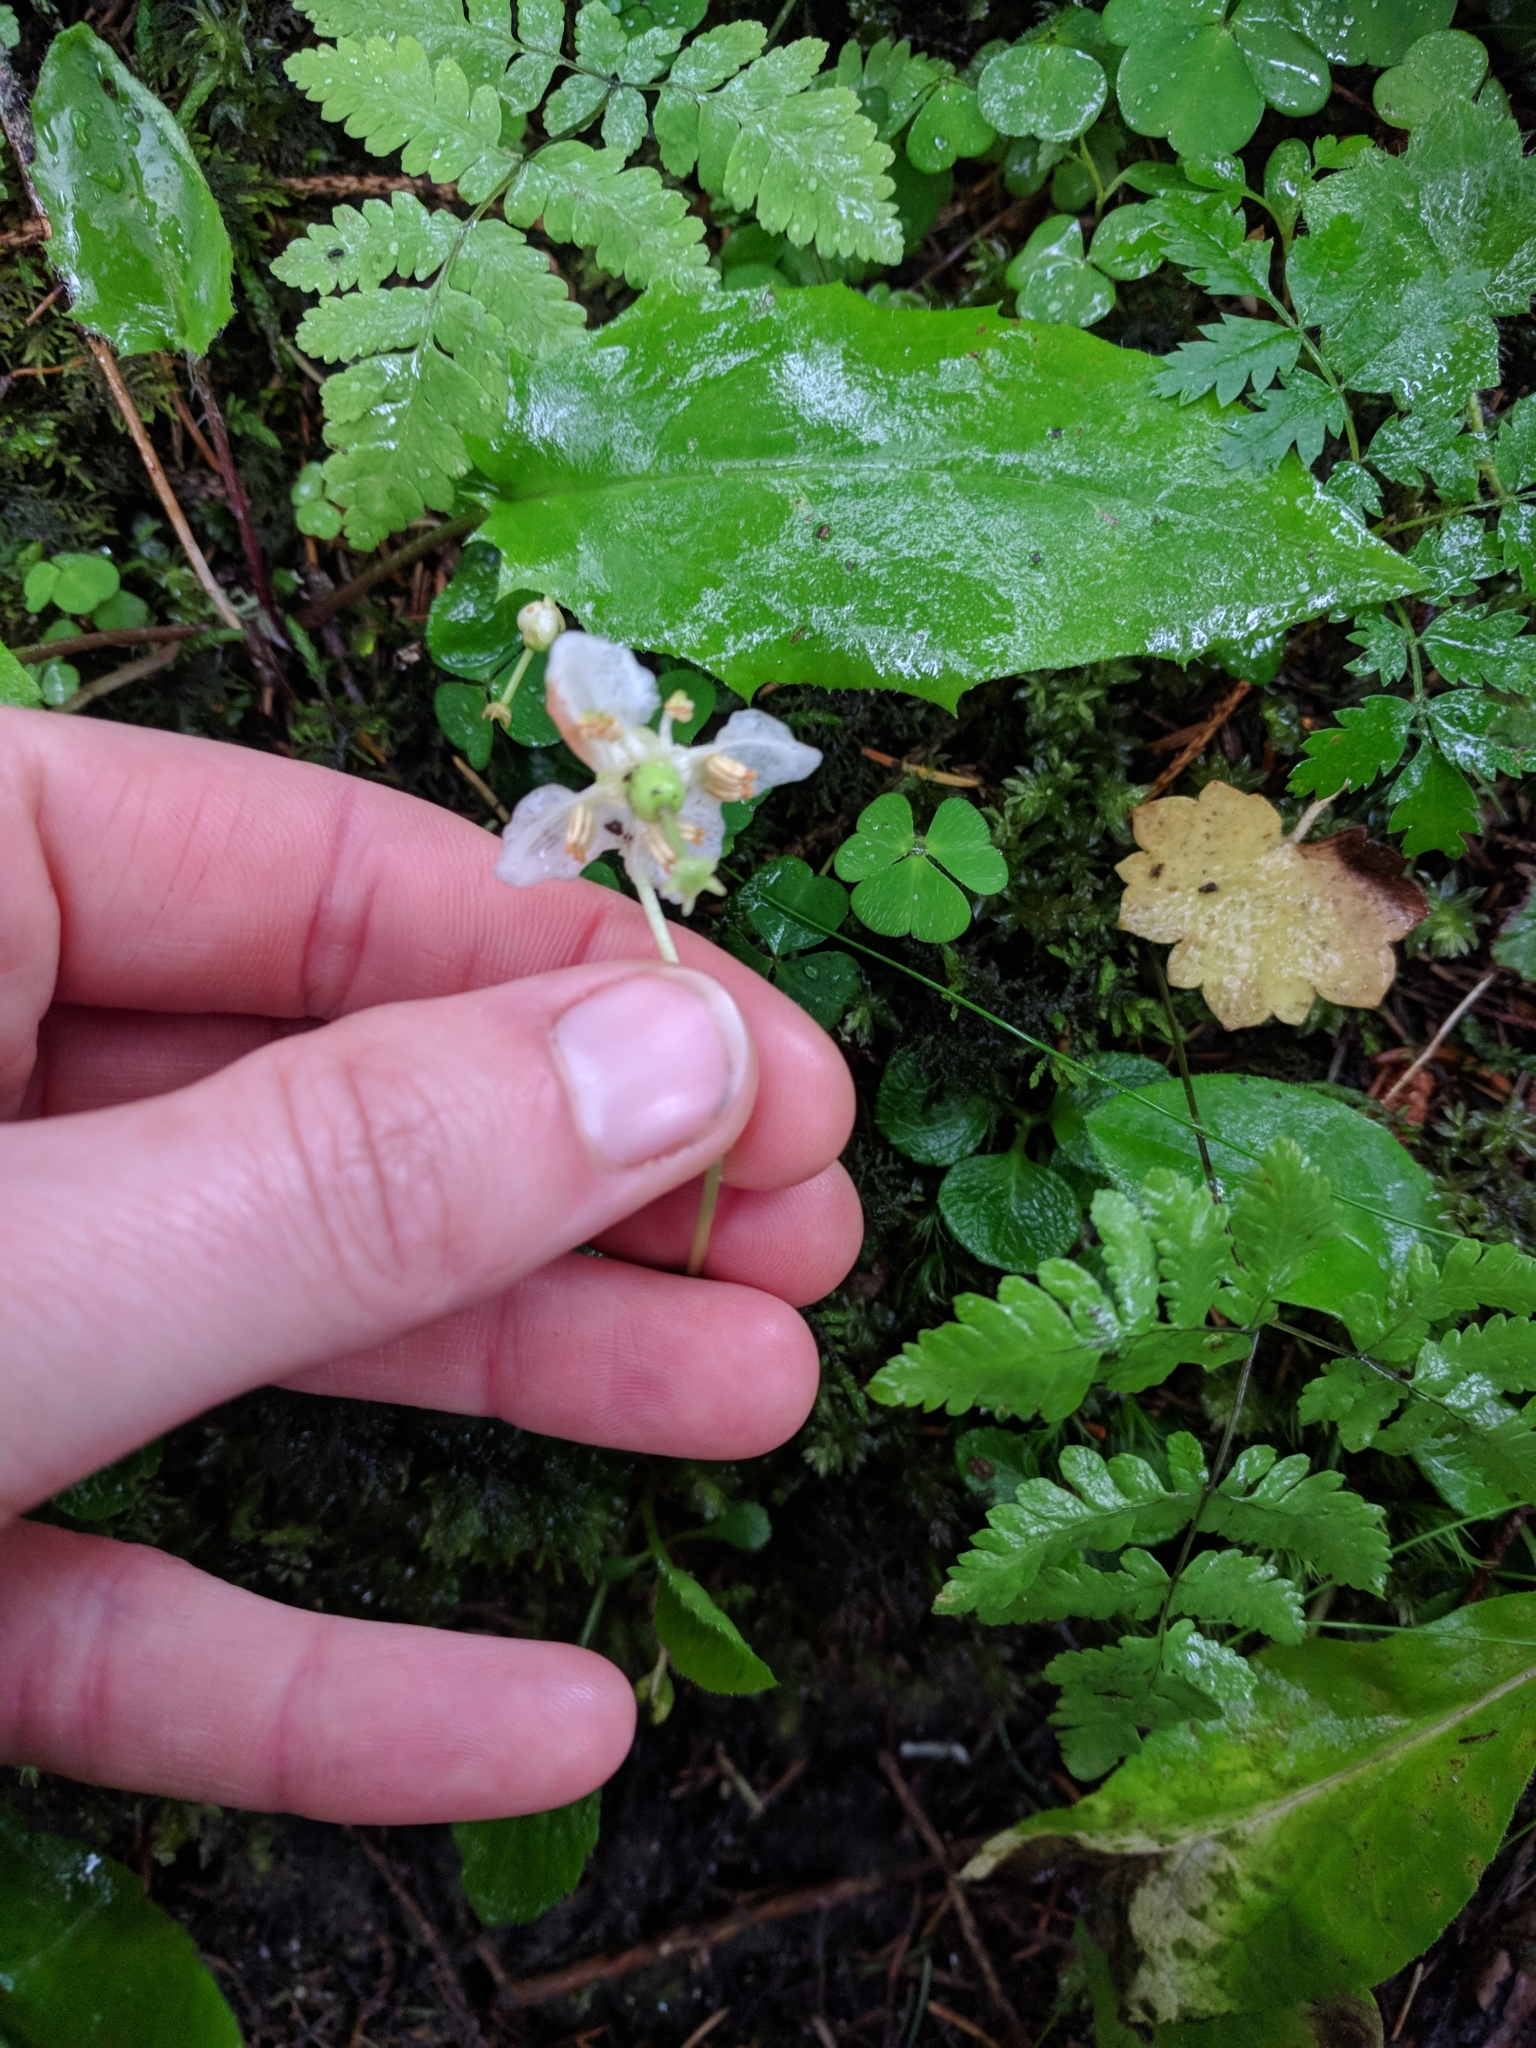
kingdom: Plantae
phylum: Tracheophyta
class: Magnoliopsida
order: Ericales
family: Ericaceae
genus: Moneses
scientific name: Moneses uniflora
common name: One-flowered wintergreen
